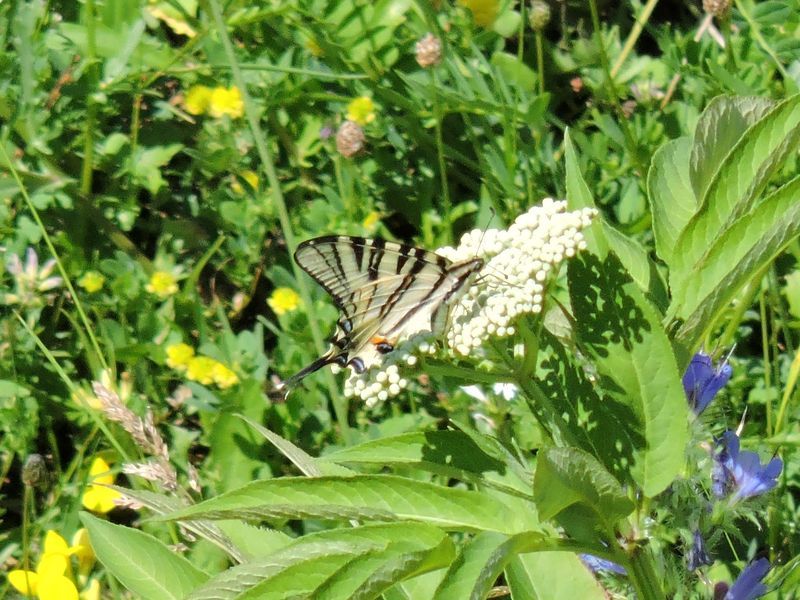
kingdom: Animalia
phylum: Arthropoda
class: Insecta
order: Lepidoptera
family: Papilionidae
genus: Iphiclides
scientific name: Iphiclides podalirius
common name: Scarce swallowtail
